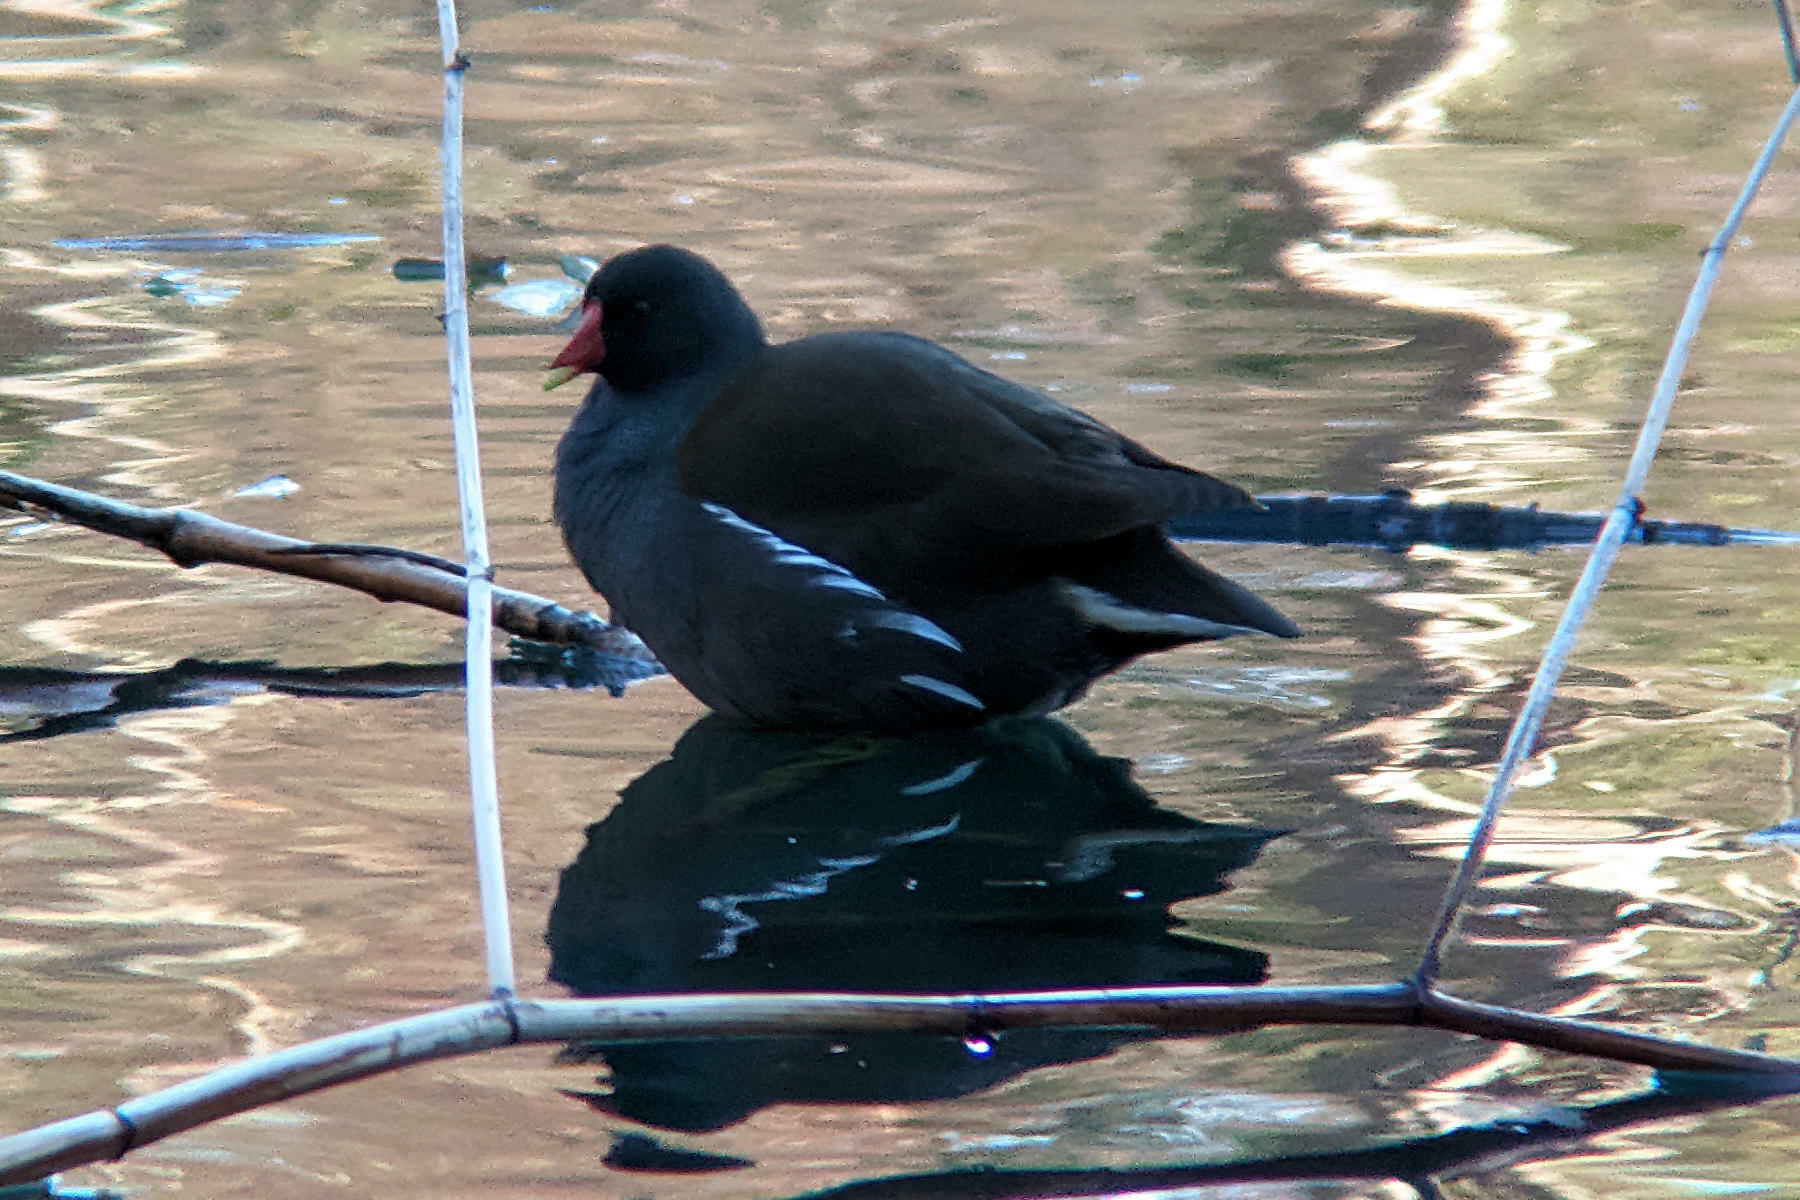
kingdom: Animalia
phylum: Chordata
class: Aves
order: Gruiformes
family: Rallidae
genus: Gallinula
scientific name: Gallinula chloropus
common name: Common moorhen
